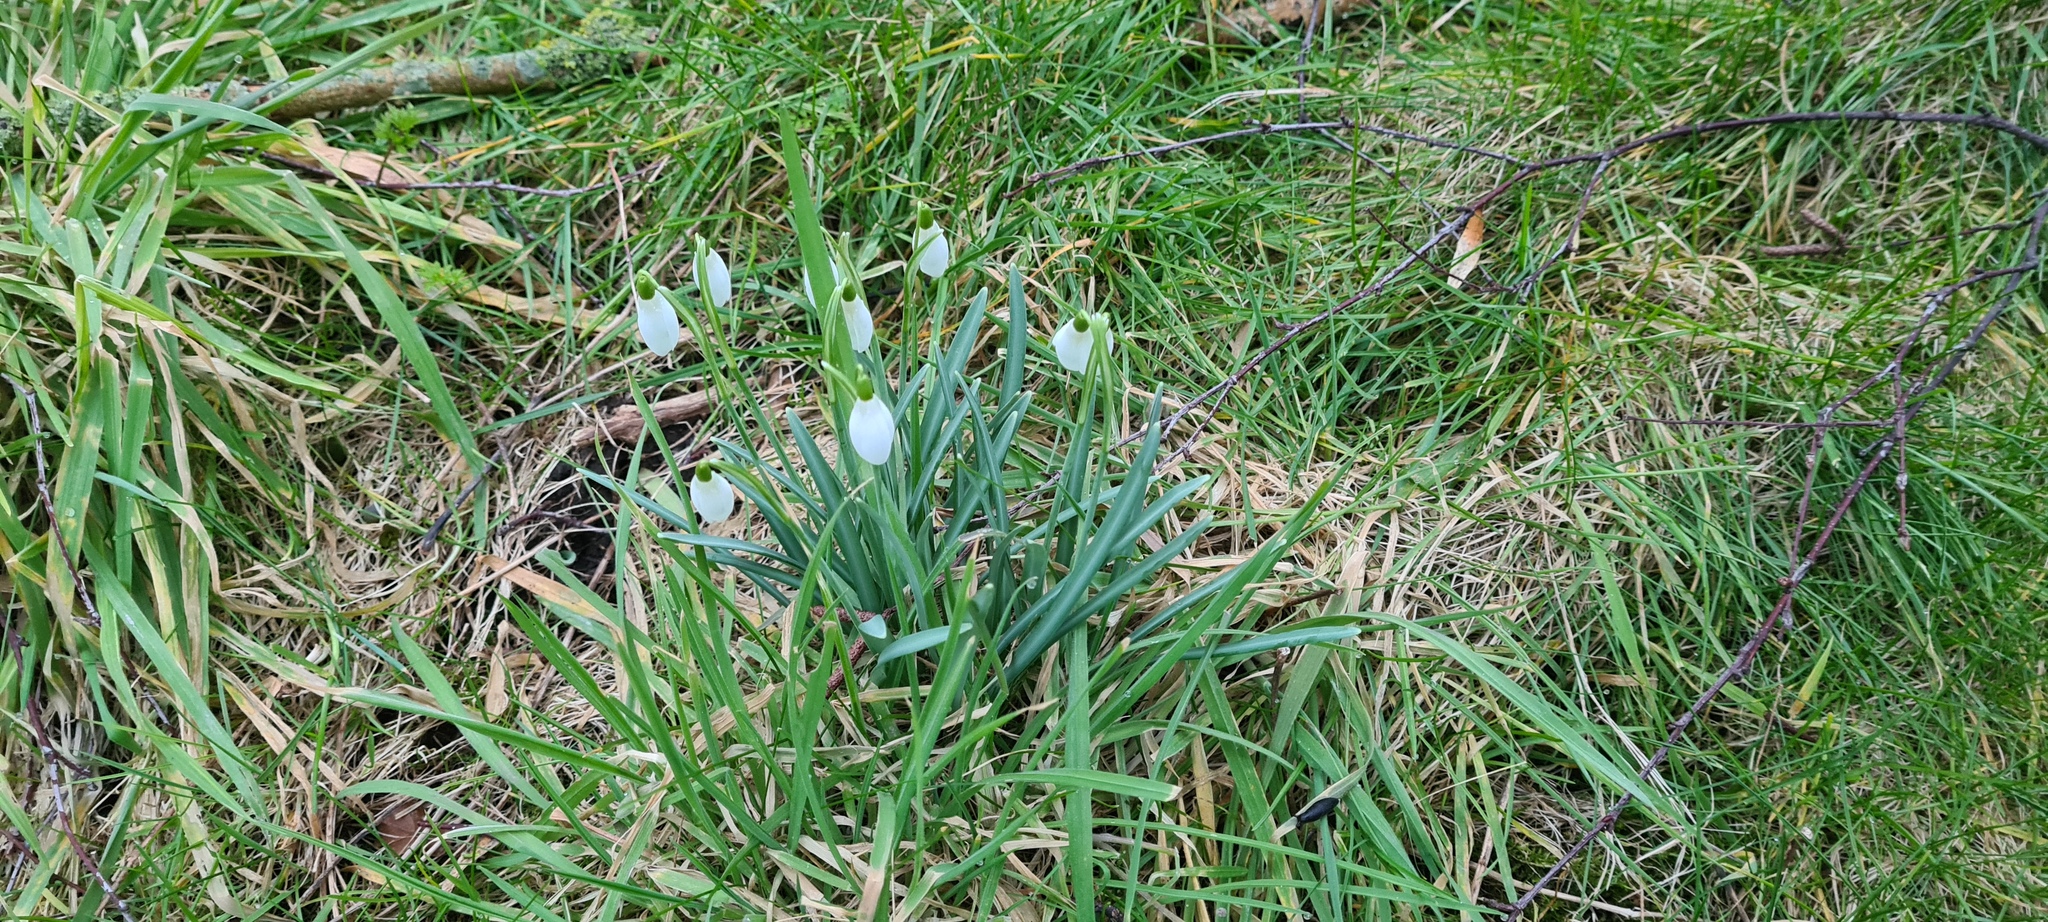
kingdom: Plantae
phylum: Tracheophyta
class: Liliopsida
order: Asparagales
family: Amaryllidaceae
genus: Galanthus
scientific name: Galanthus nivalis
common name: Snowdrop
